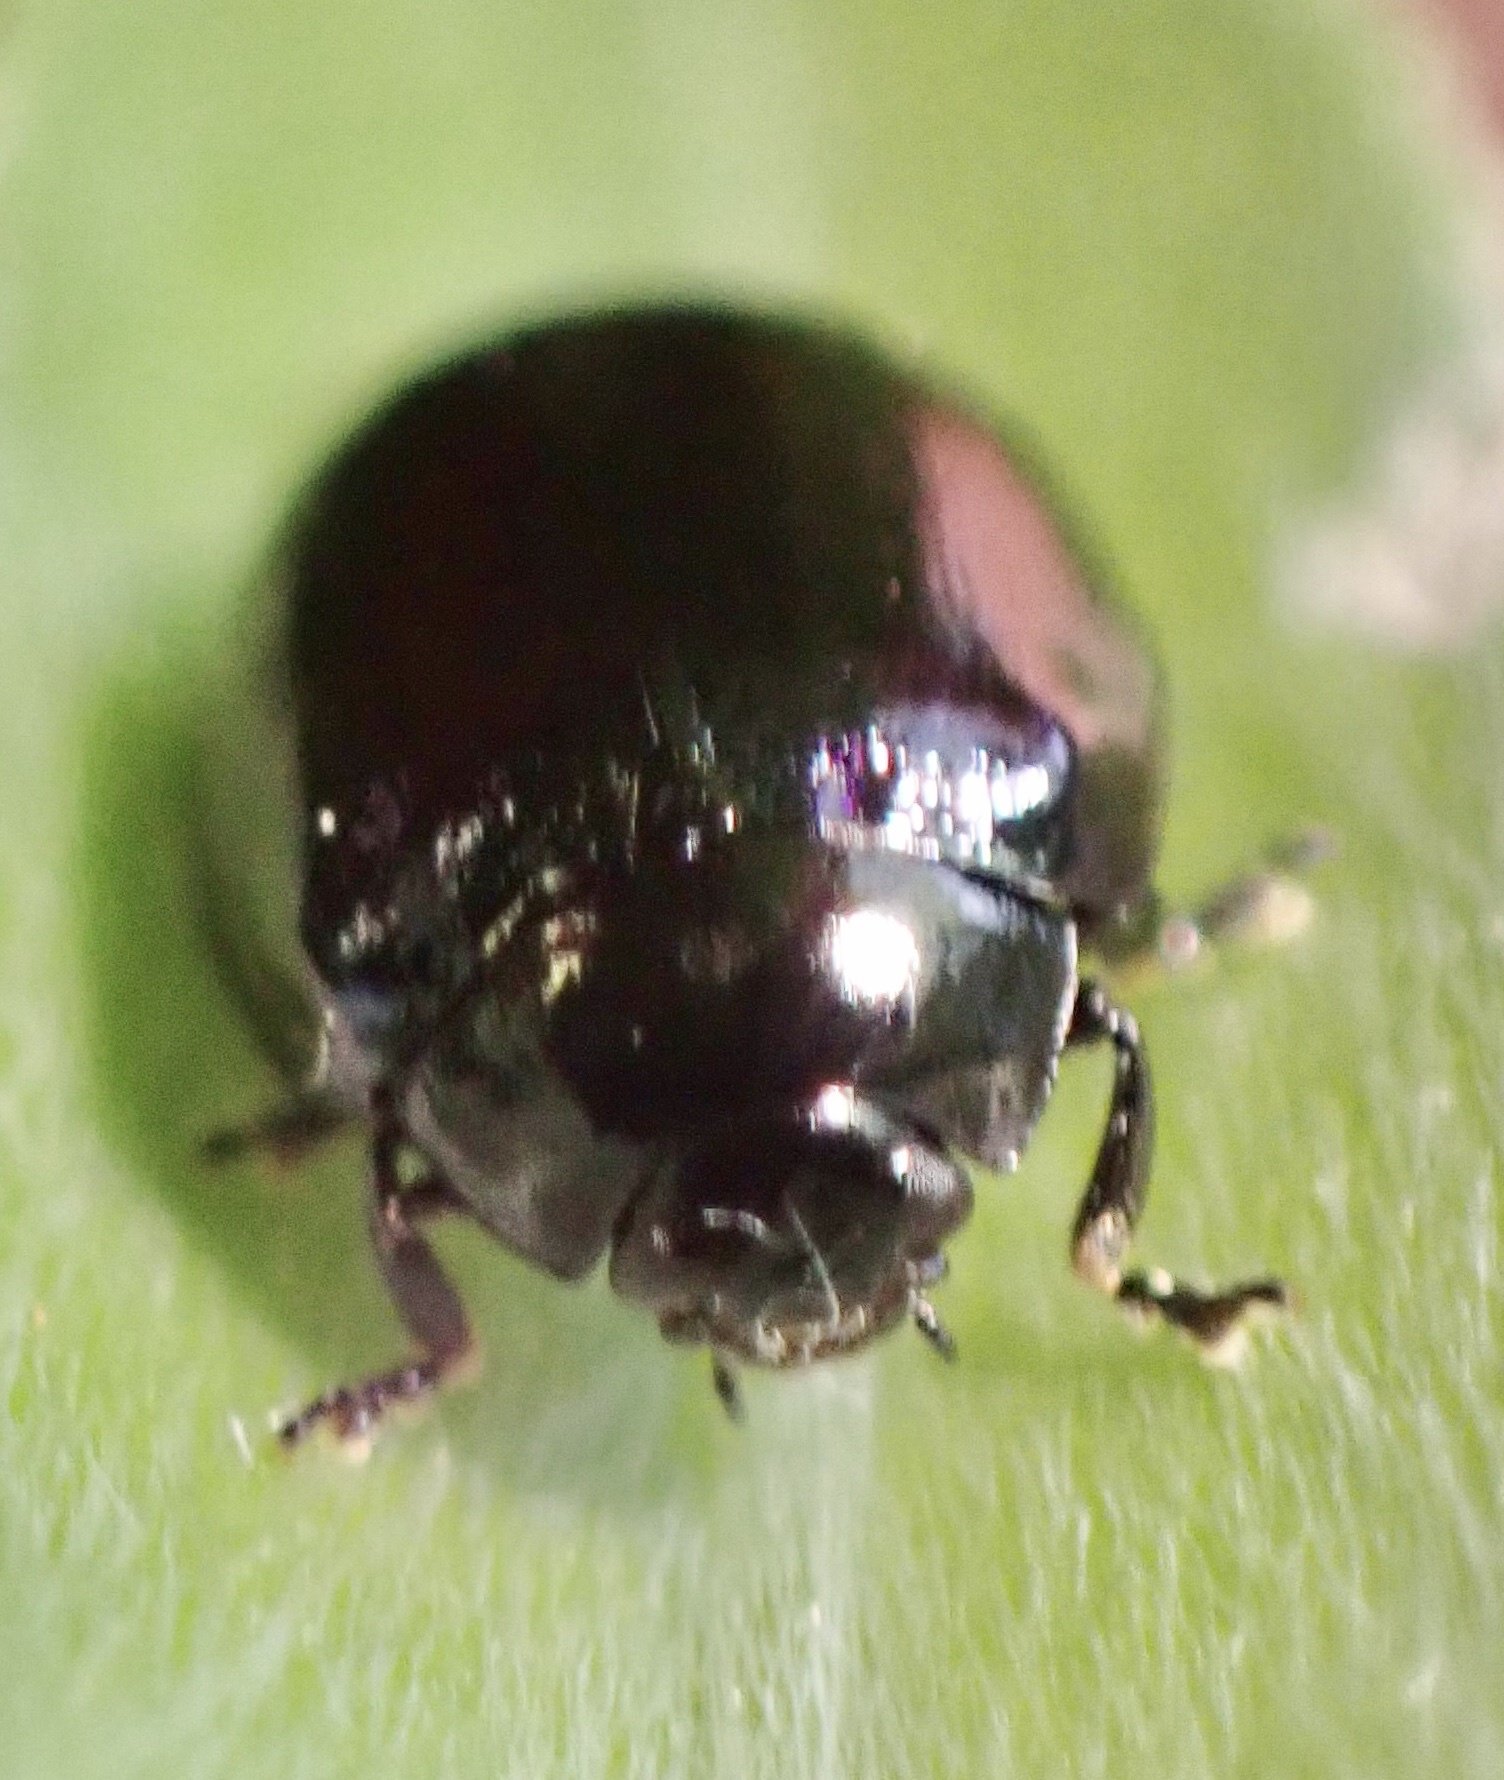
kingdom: Animalia
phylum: Arthropoda
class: Insecta
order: Coleoptera
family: Chrysomelidae
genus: Plagiodera
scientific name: Plagiodera versicolora
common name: Imported willow leaf beetle
